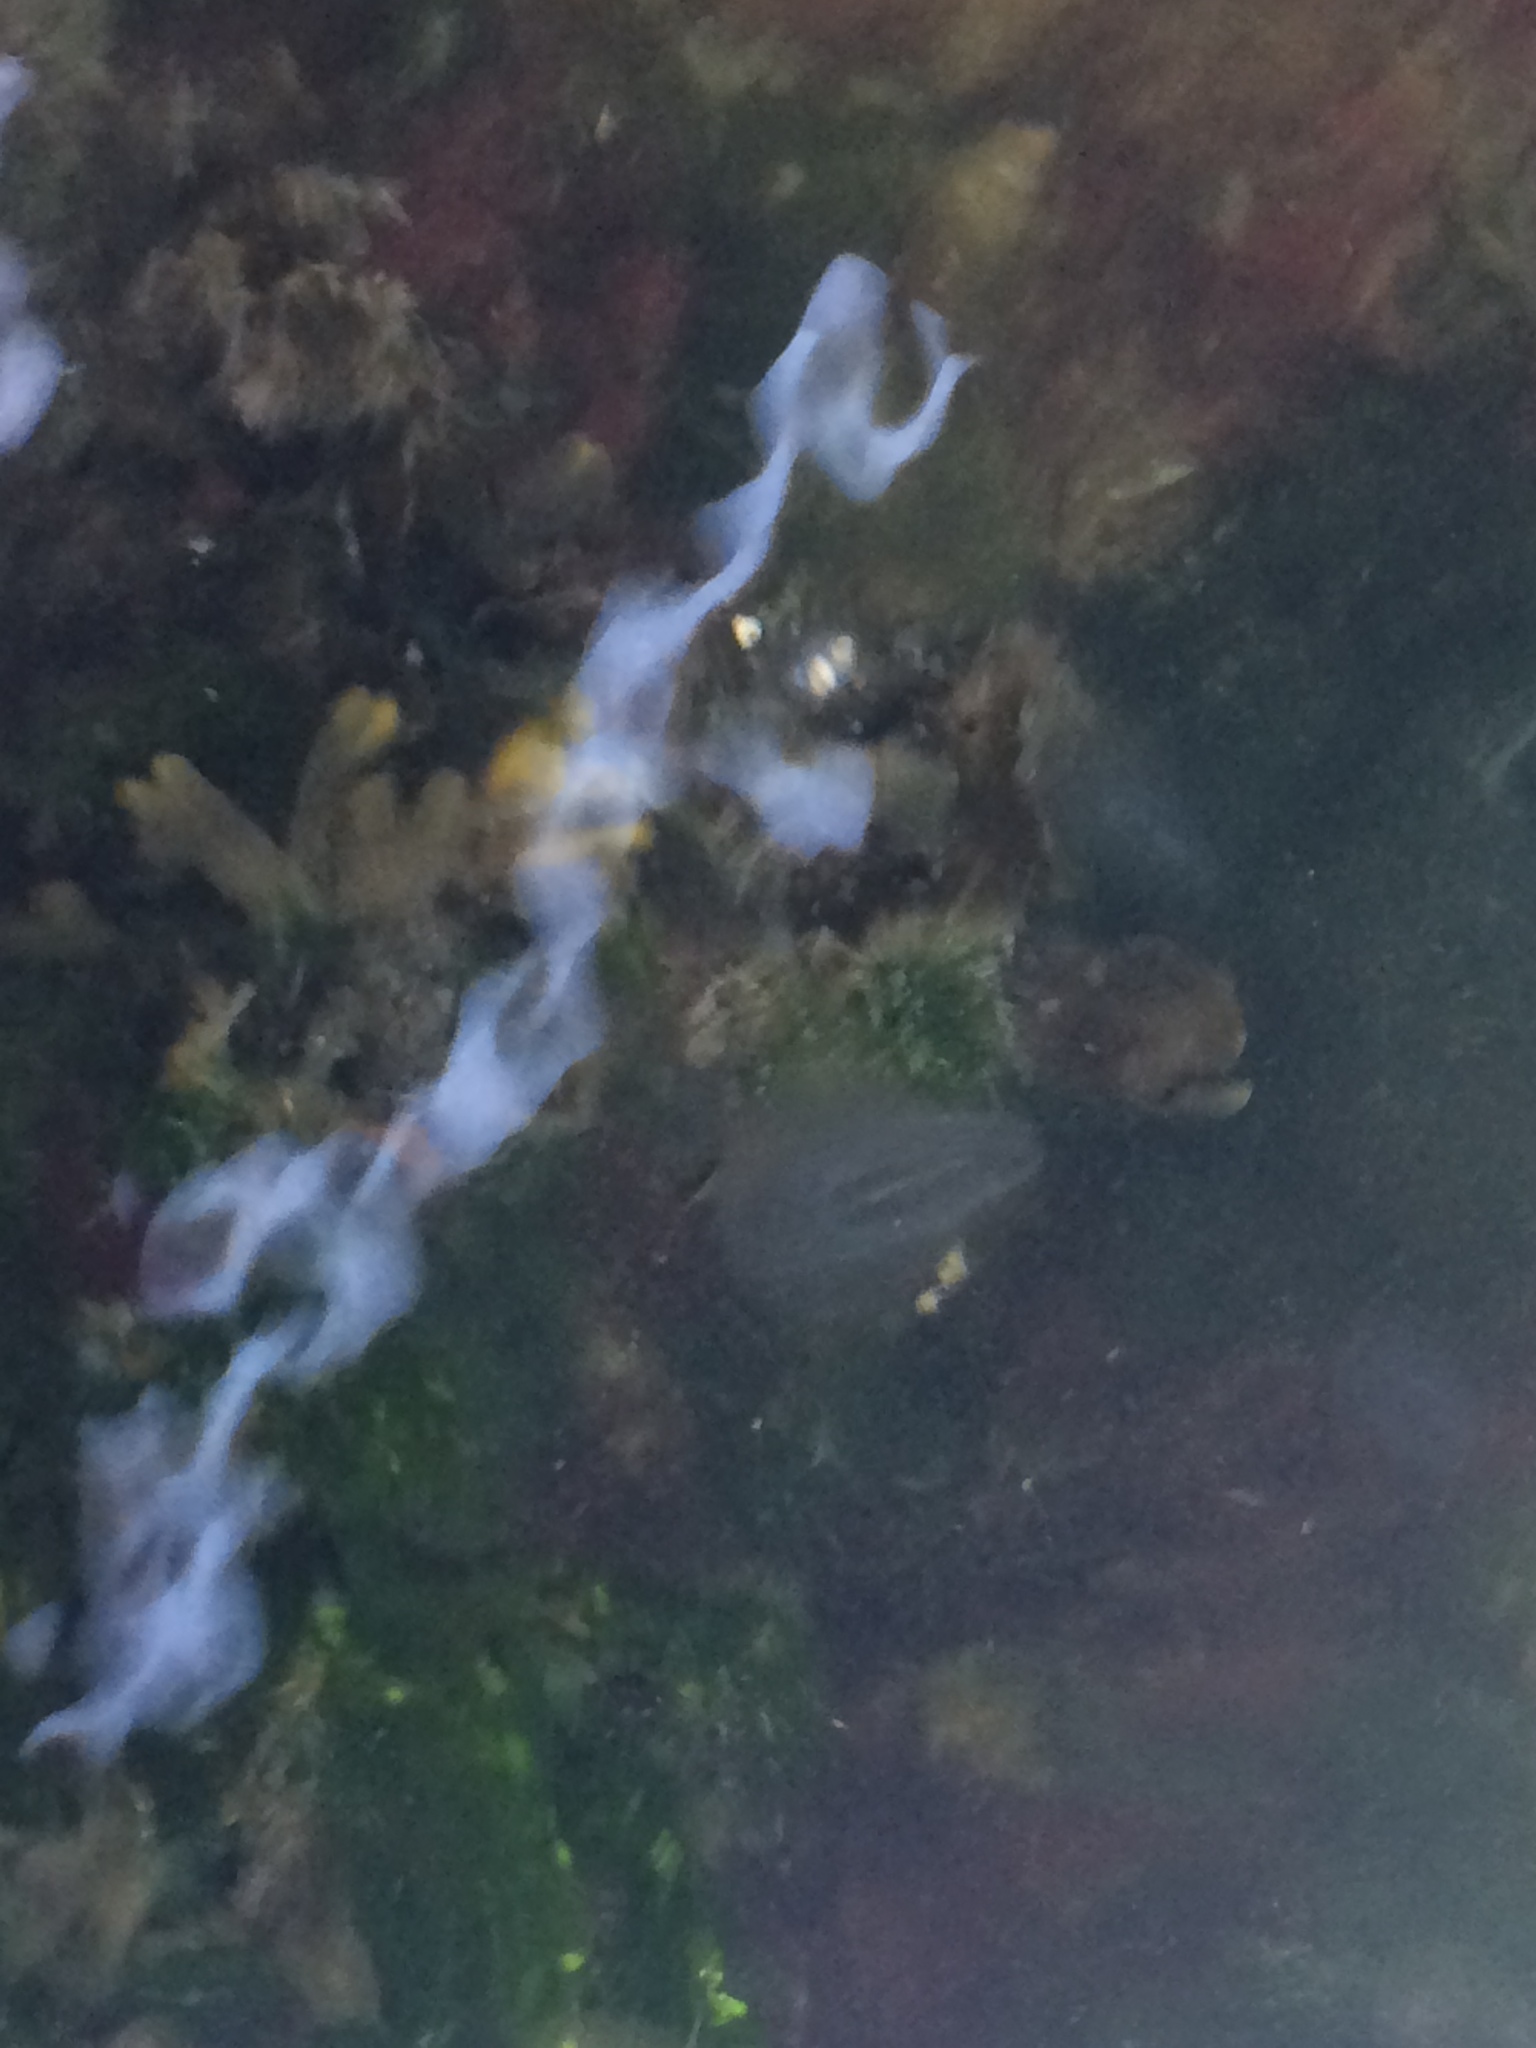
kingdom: Animalia
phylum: Ctenophora
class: Tentaculata
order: Cydippida
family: Pleurobrachiidae
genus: Pleurobrachia
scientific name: Pleurobrachia pileus
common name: Sea gooseberry
